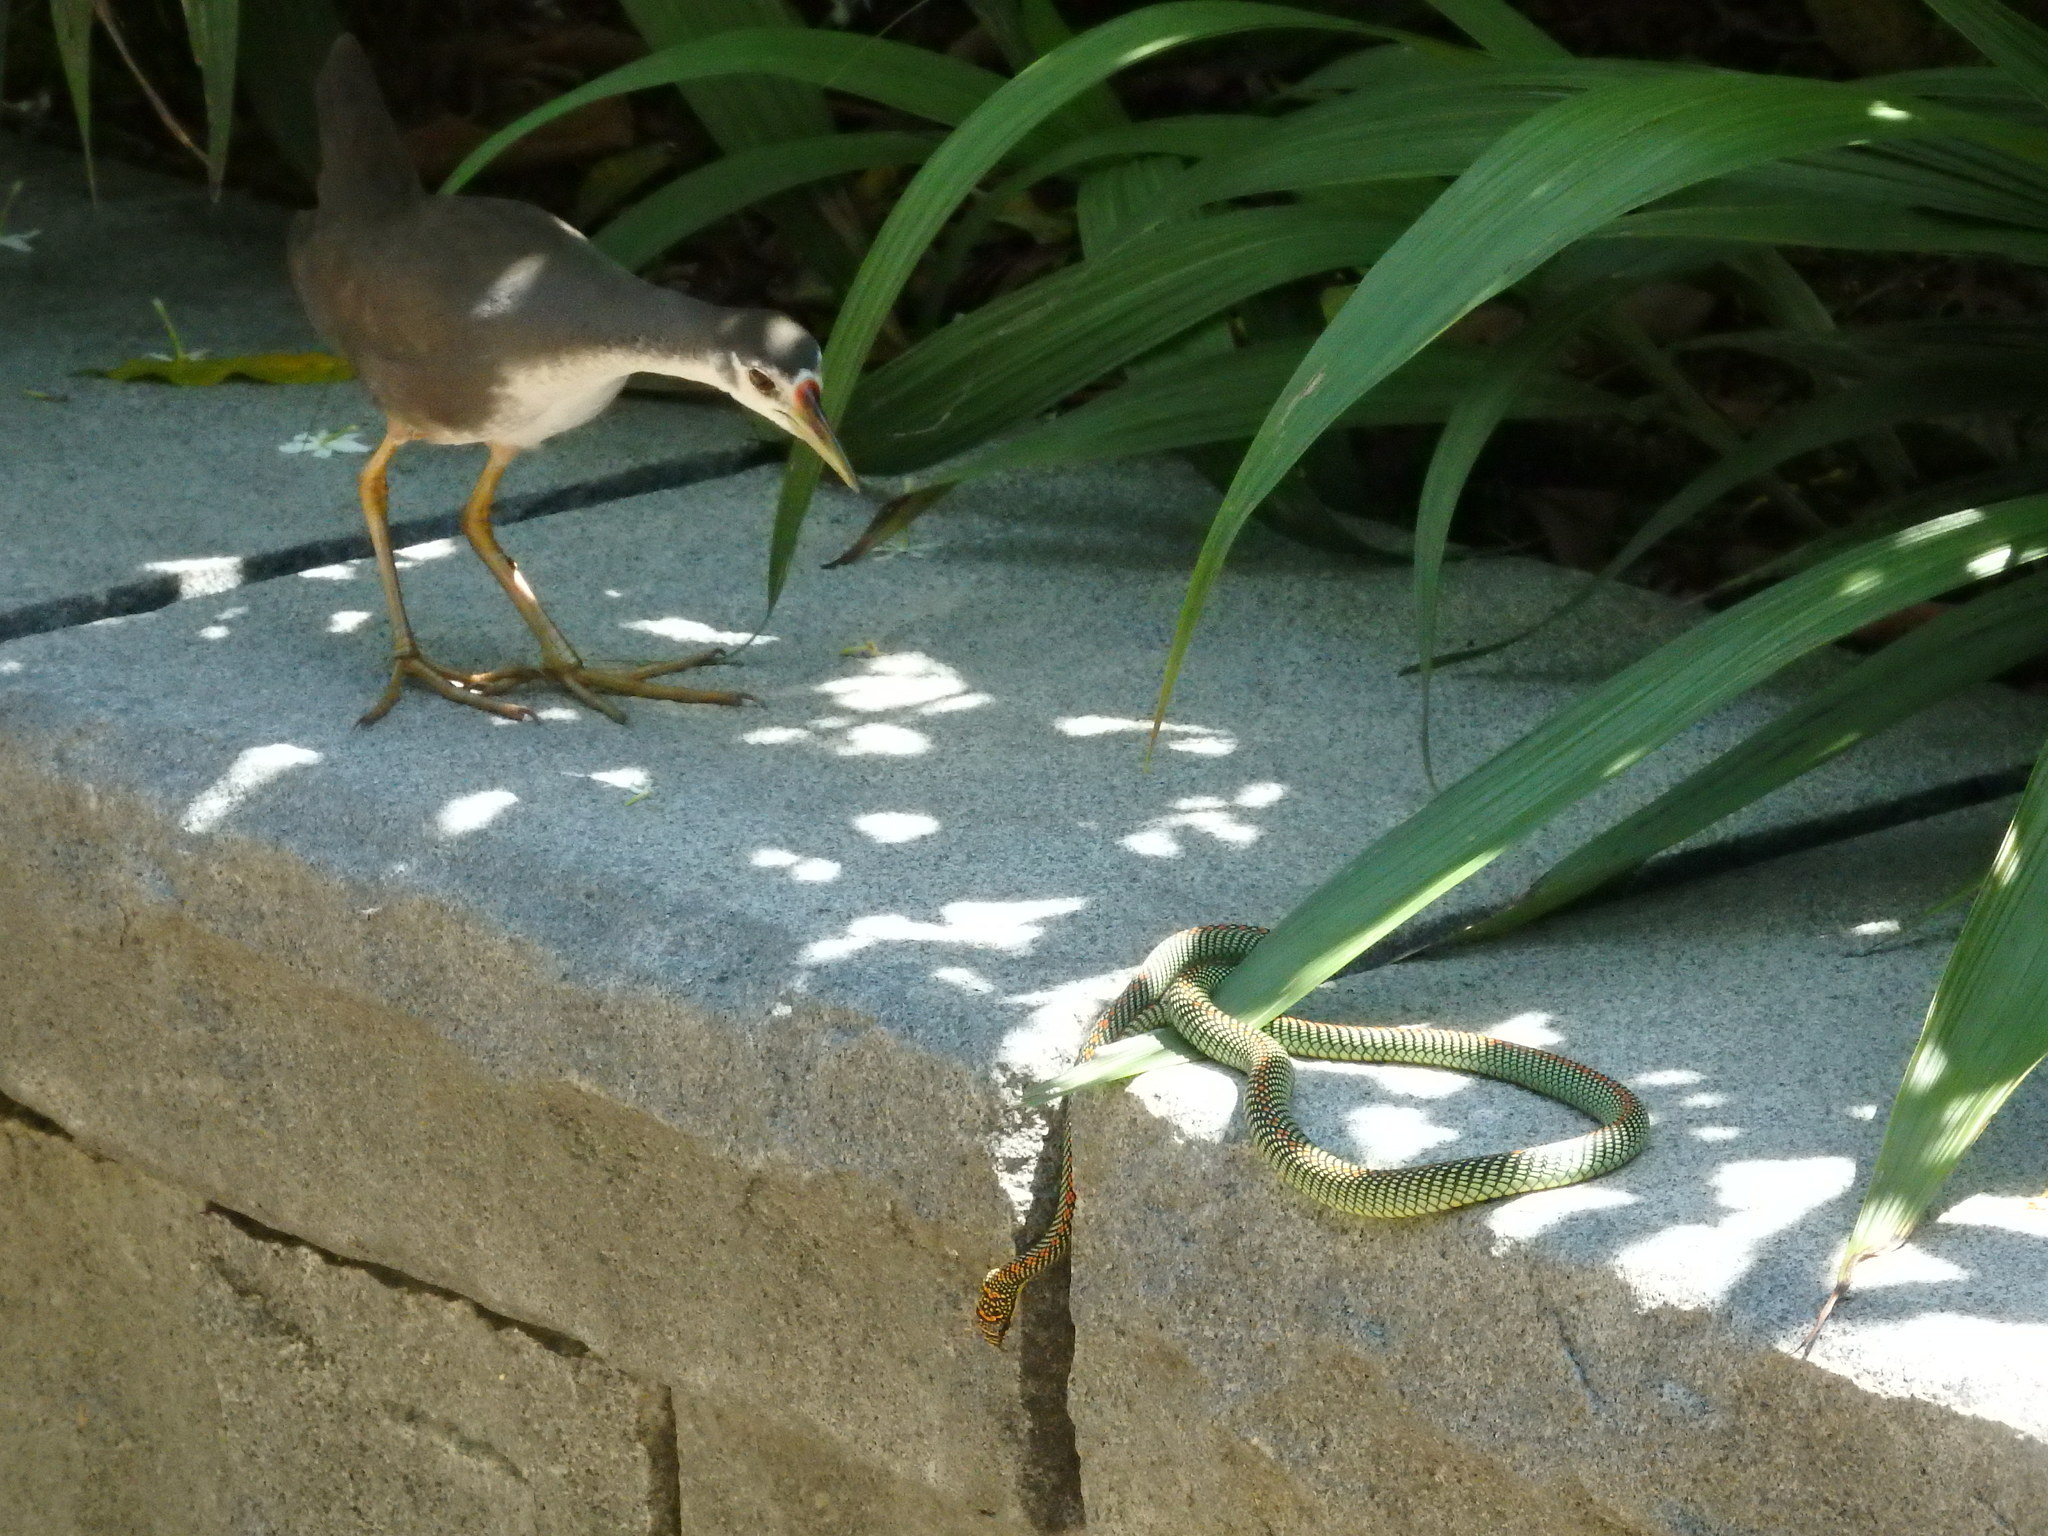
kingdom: Animalia
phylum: Chordata
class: Squamata
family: Colubridae
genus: Chrysopelea
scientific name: Chrysopelea paradisi
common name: Paradise tree snake
